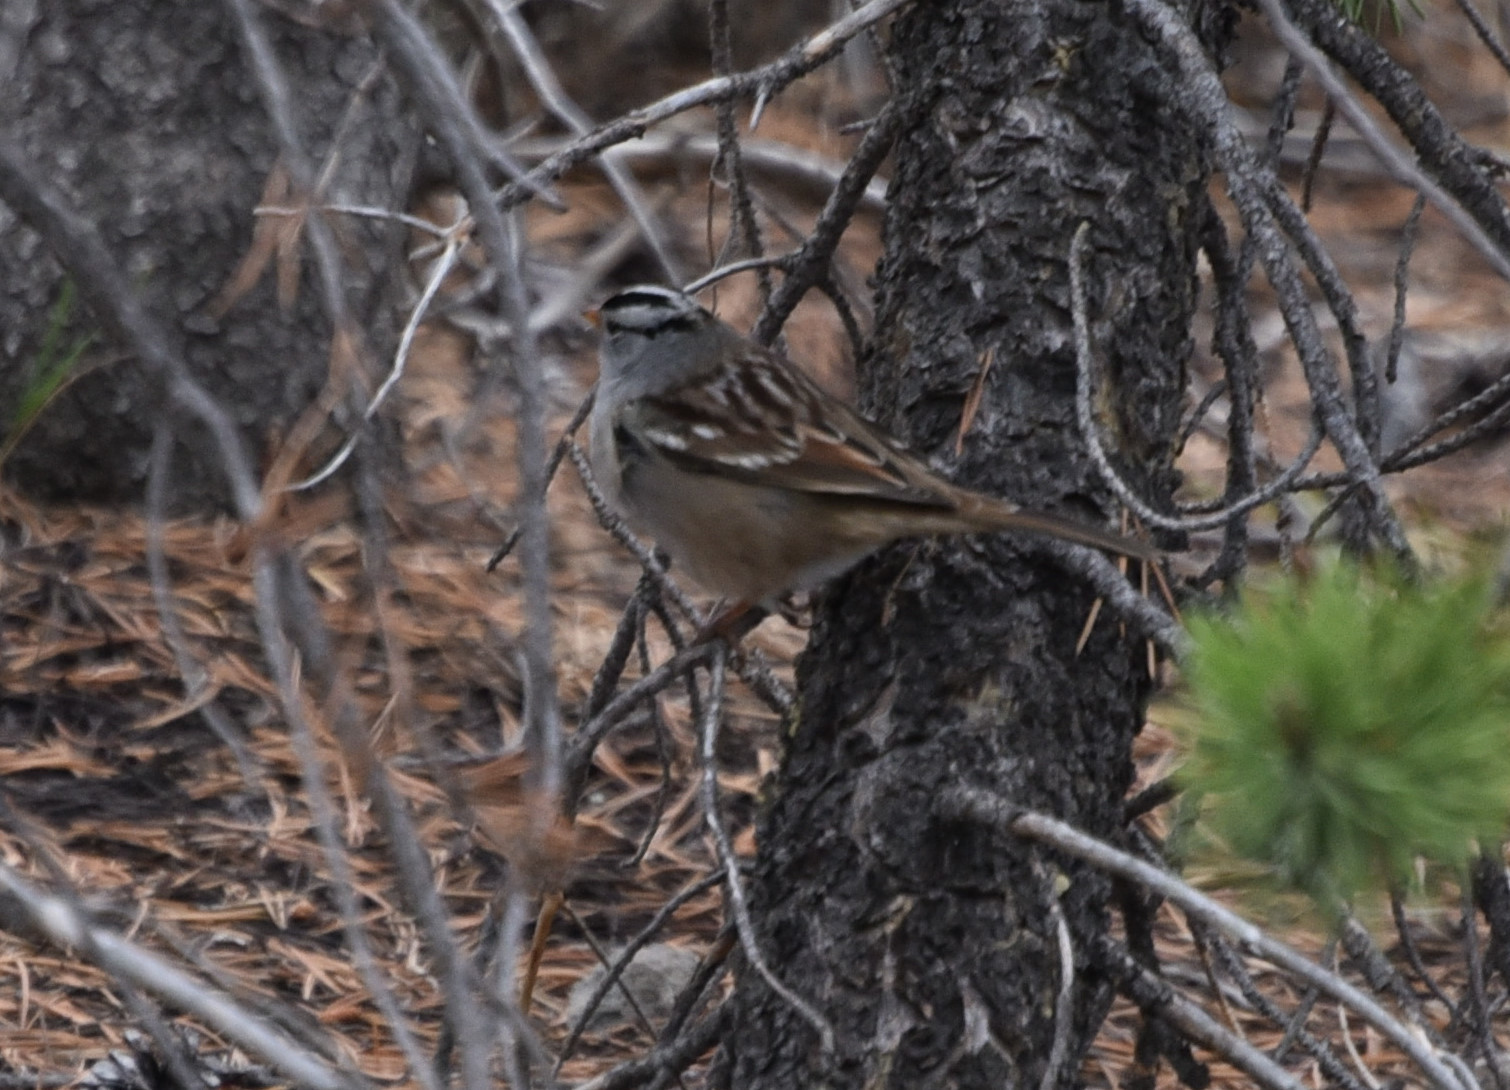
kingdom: Animalia
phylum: Chordata
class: Aves
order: Passeriformes
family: Passerellidae
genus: Zonotrichia
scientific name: Zonotrichia leucophrys
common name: White-crowned sparrow
